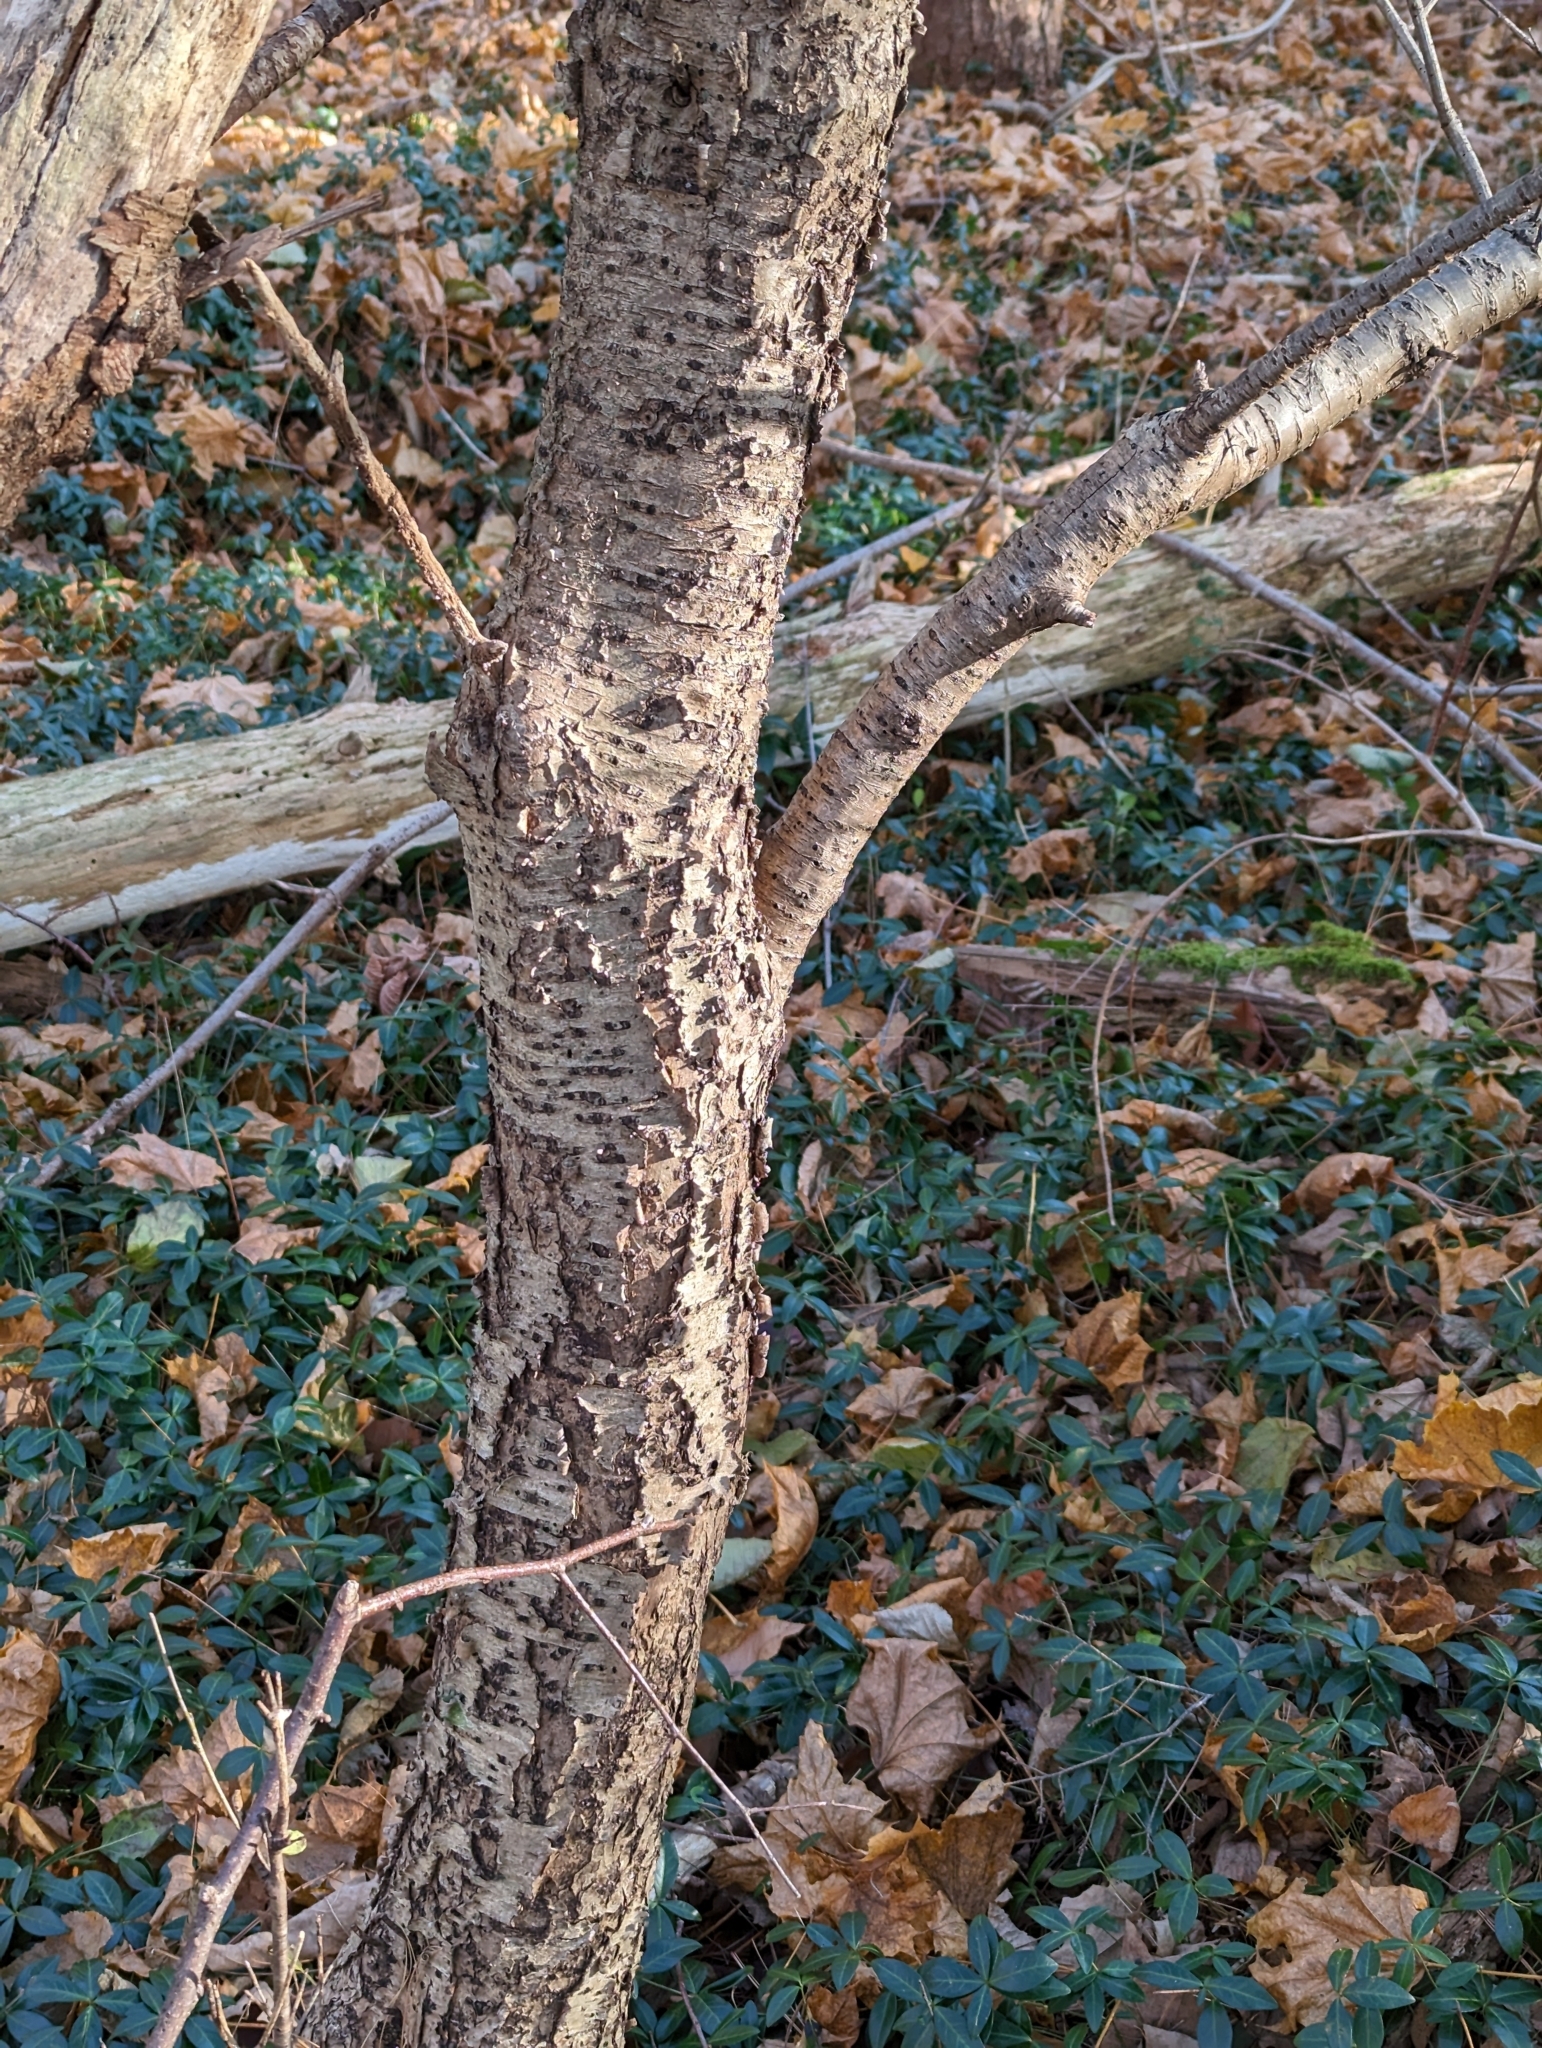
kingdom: Plantae
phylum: Tracheophyta
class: Magnoliopsida
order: Rosales
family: Rhamnaceae
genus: Rhamnus
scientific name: Rhamnus cathartica
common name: Common buckthorn
